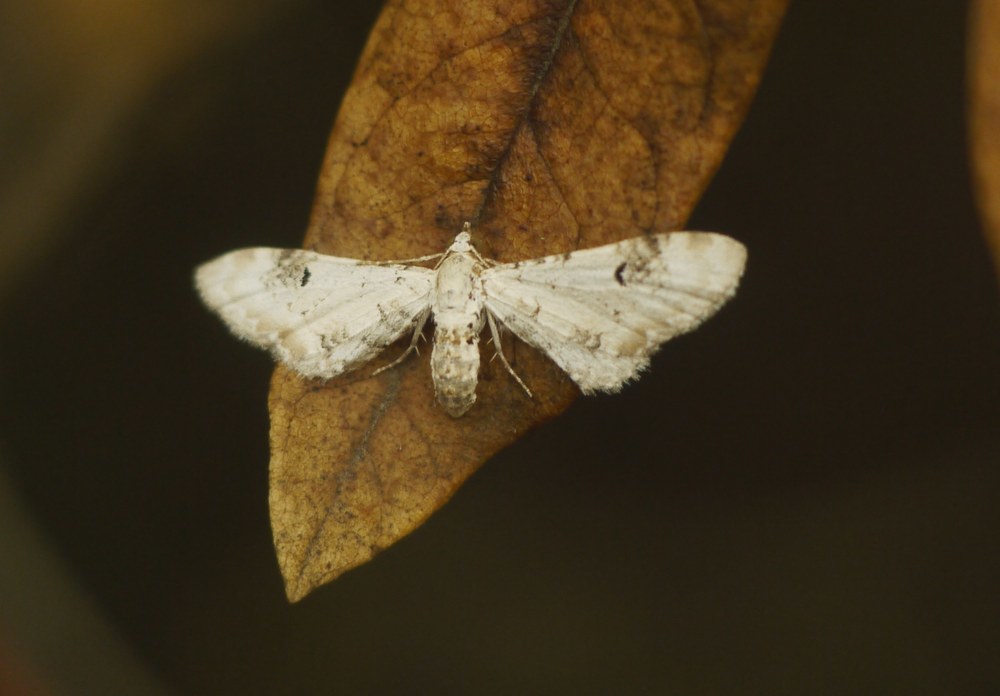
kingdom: Animalia
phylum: Arthropoda
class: Insecta
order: Lepidoptera
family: Geometridae
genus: Eupithecia
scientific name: Eupithecia centaureata
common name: Lime-speck pug
